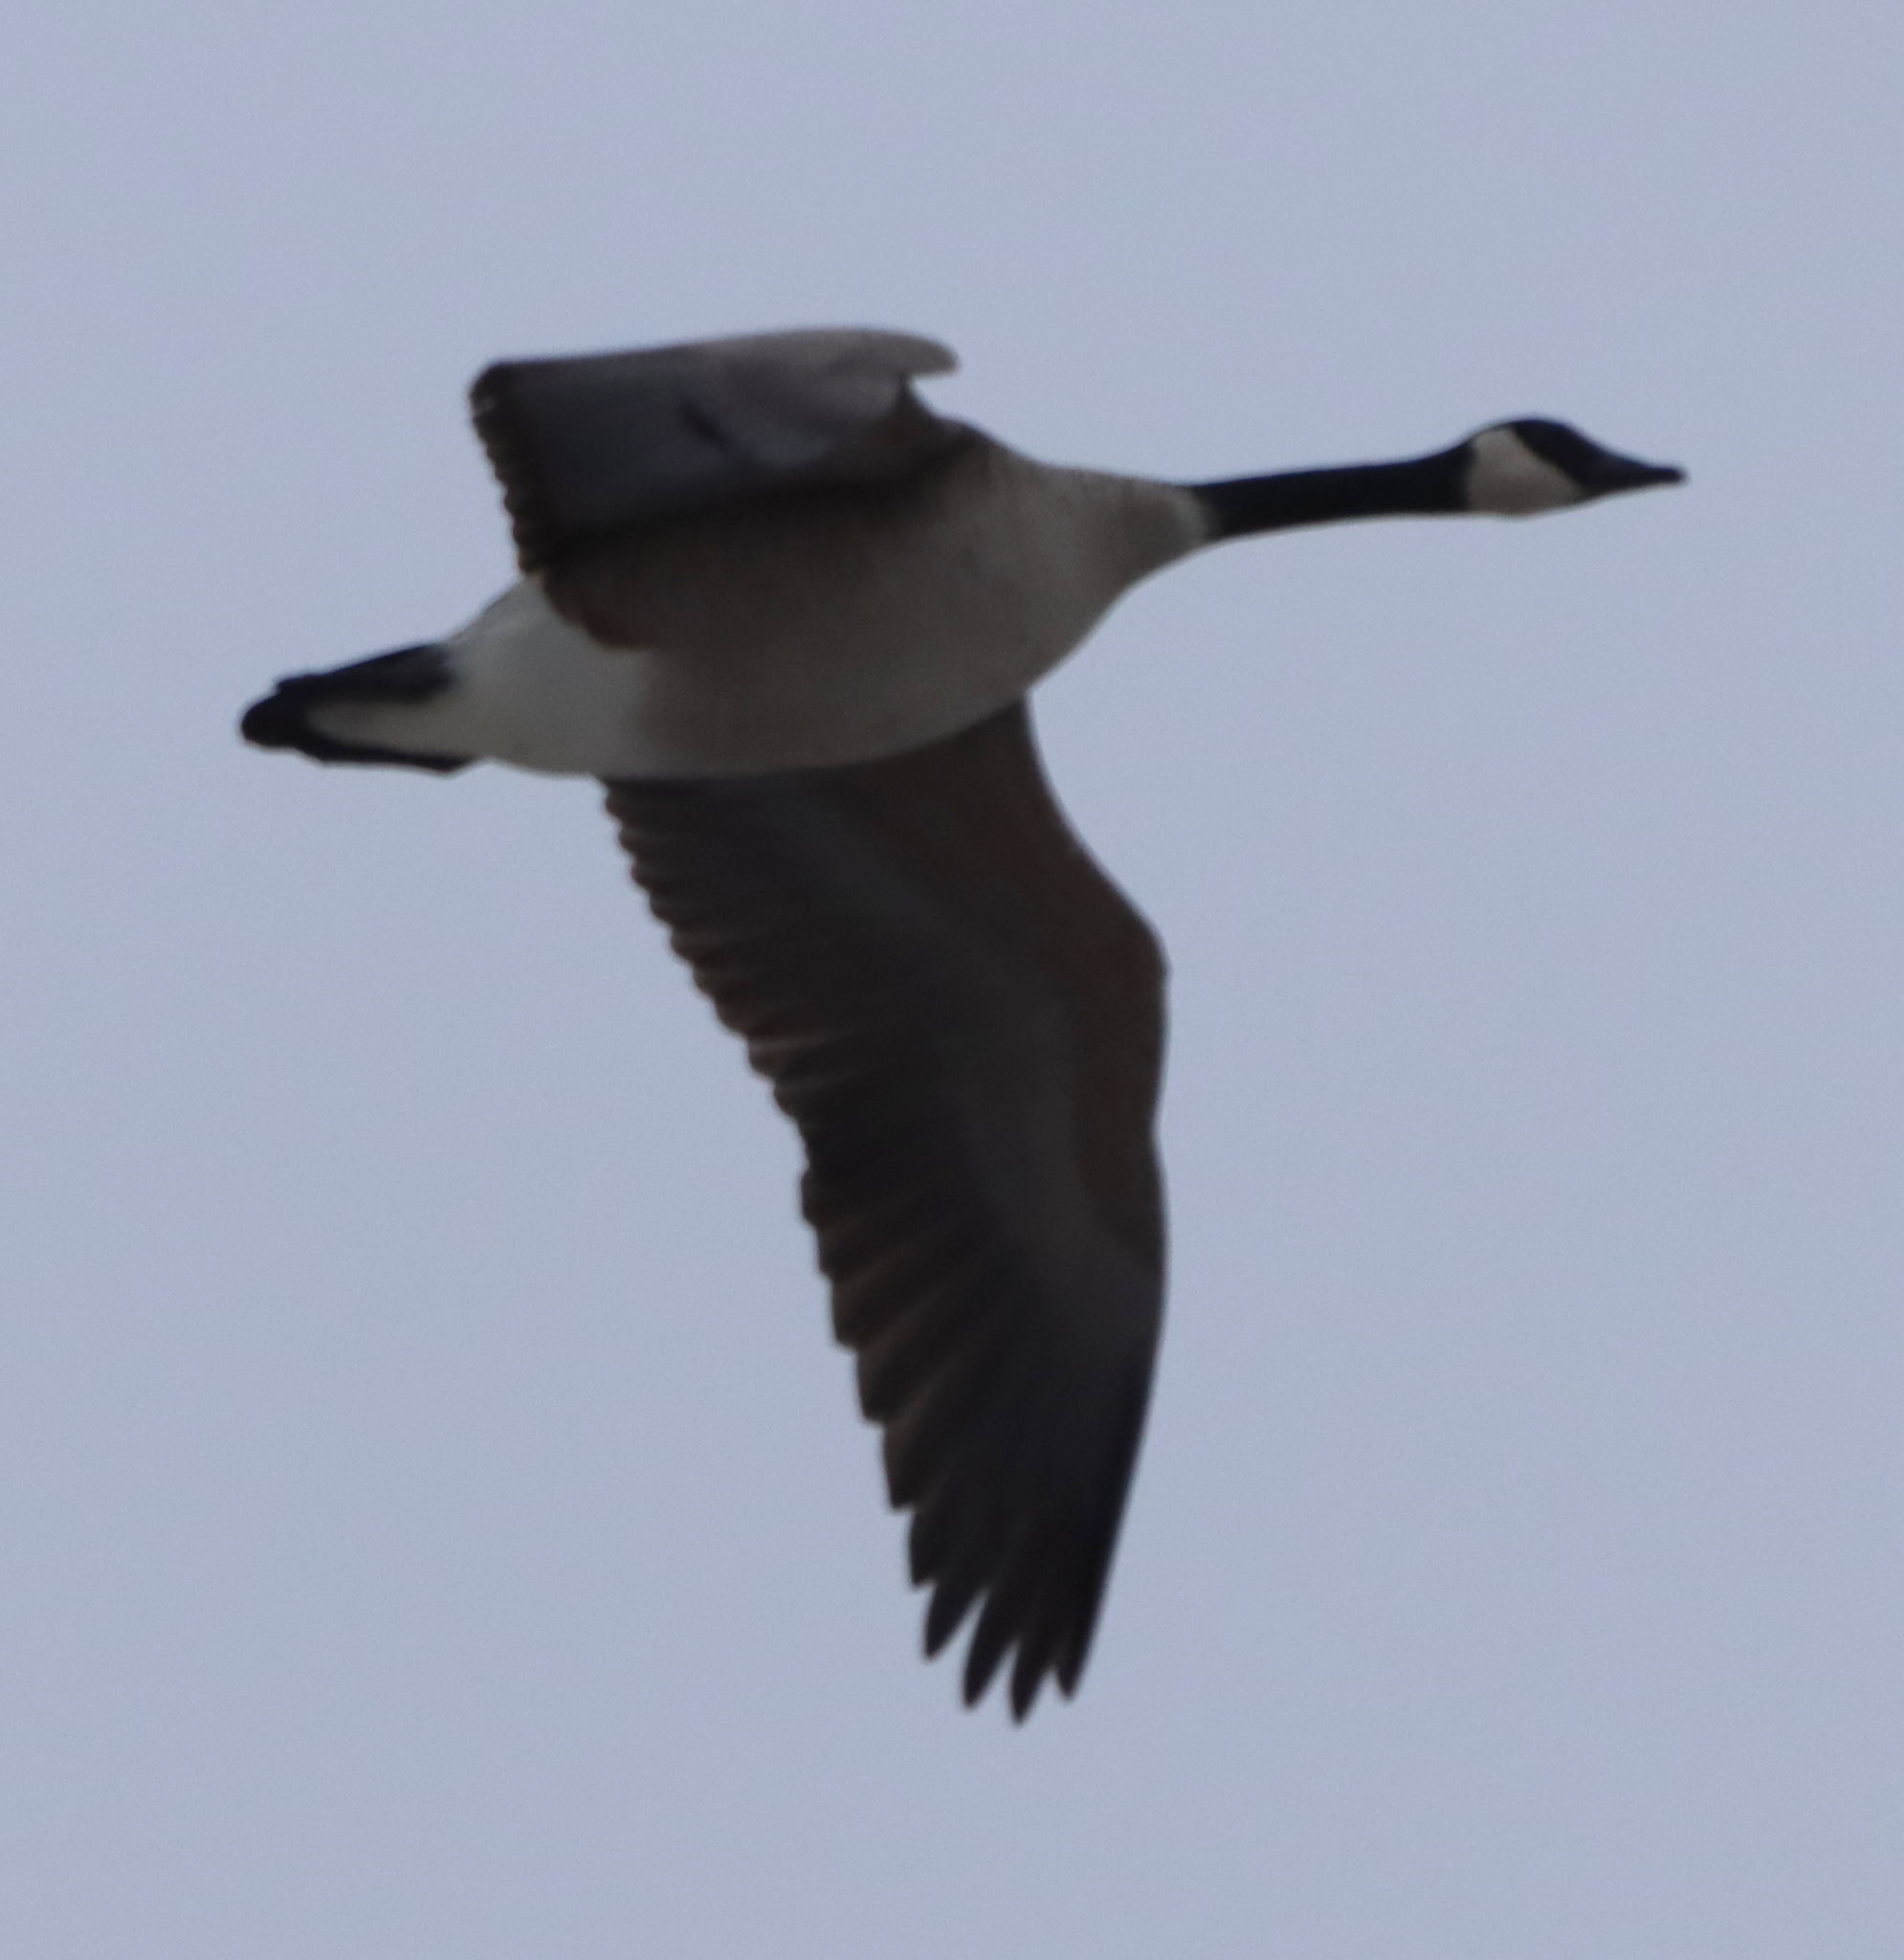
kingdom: Animalia
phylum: Chordata
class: Aves
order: Anseriformes
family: Anatidae
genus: Branta
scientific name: Branta canadensis
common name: Canada goose
